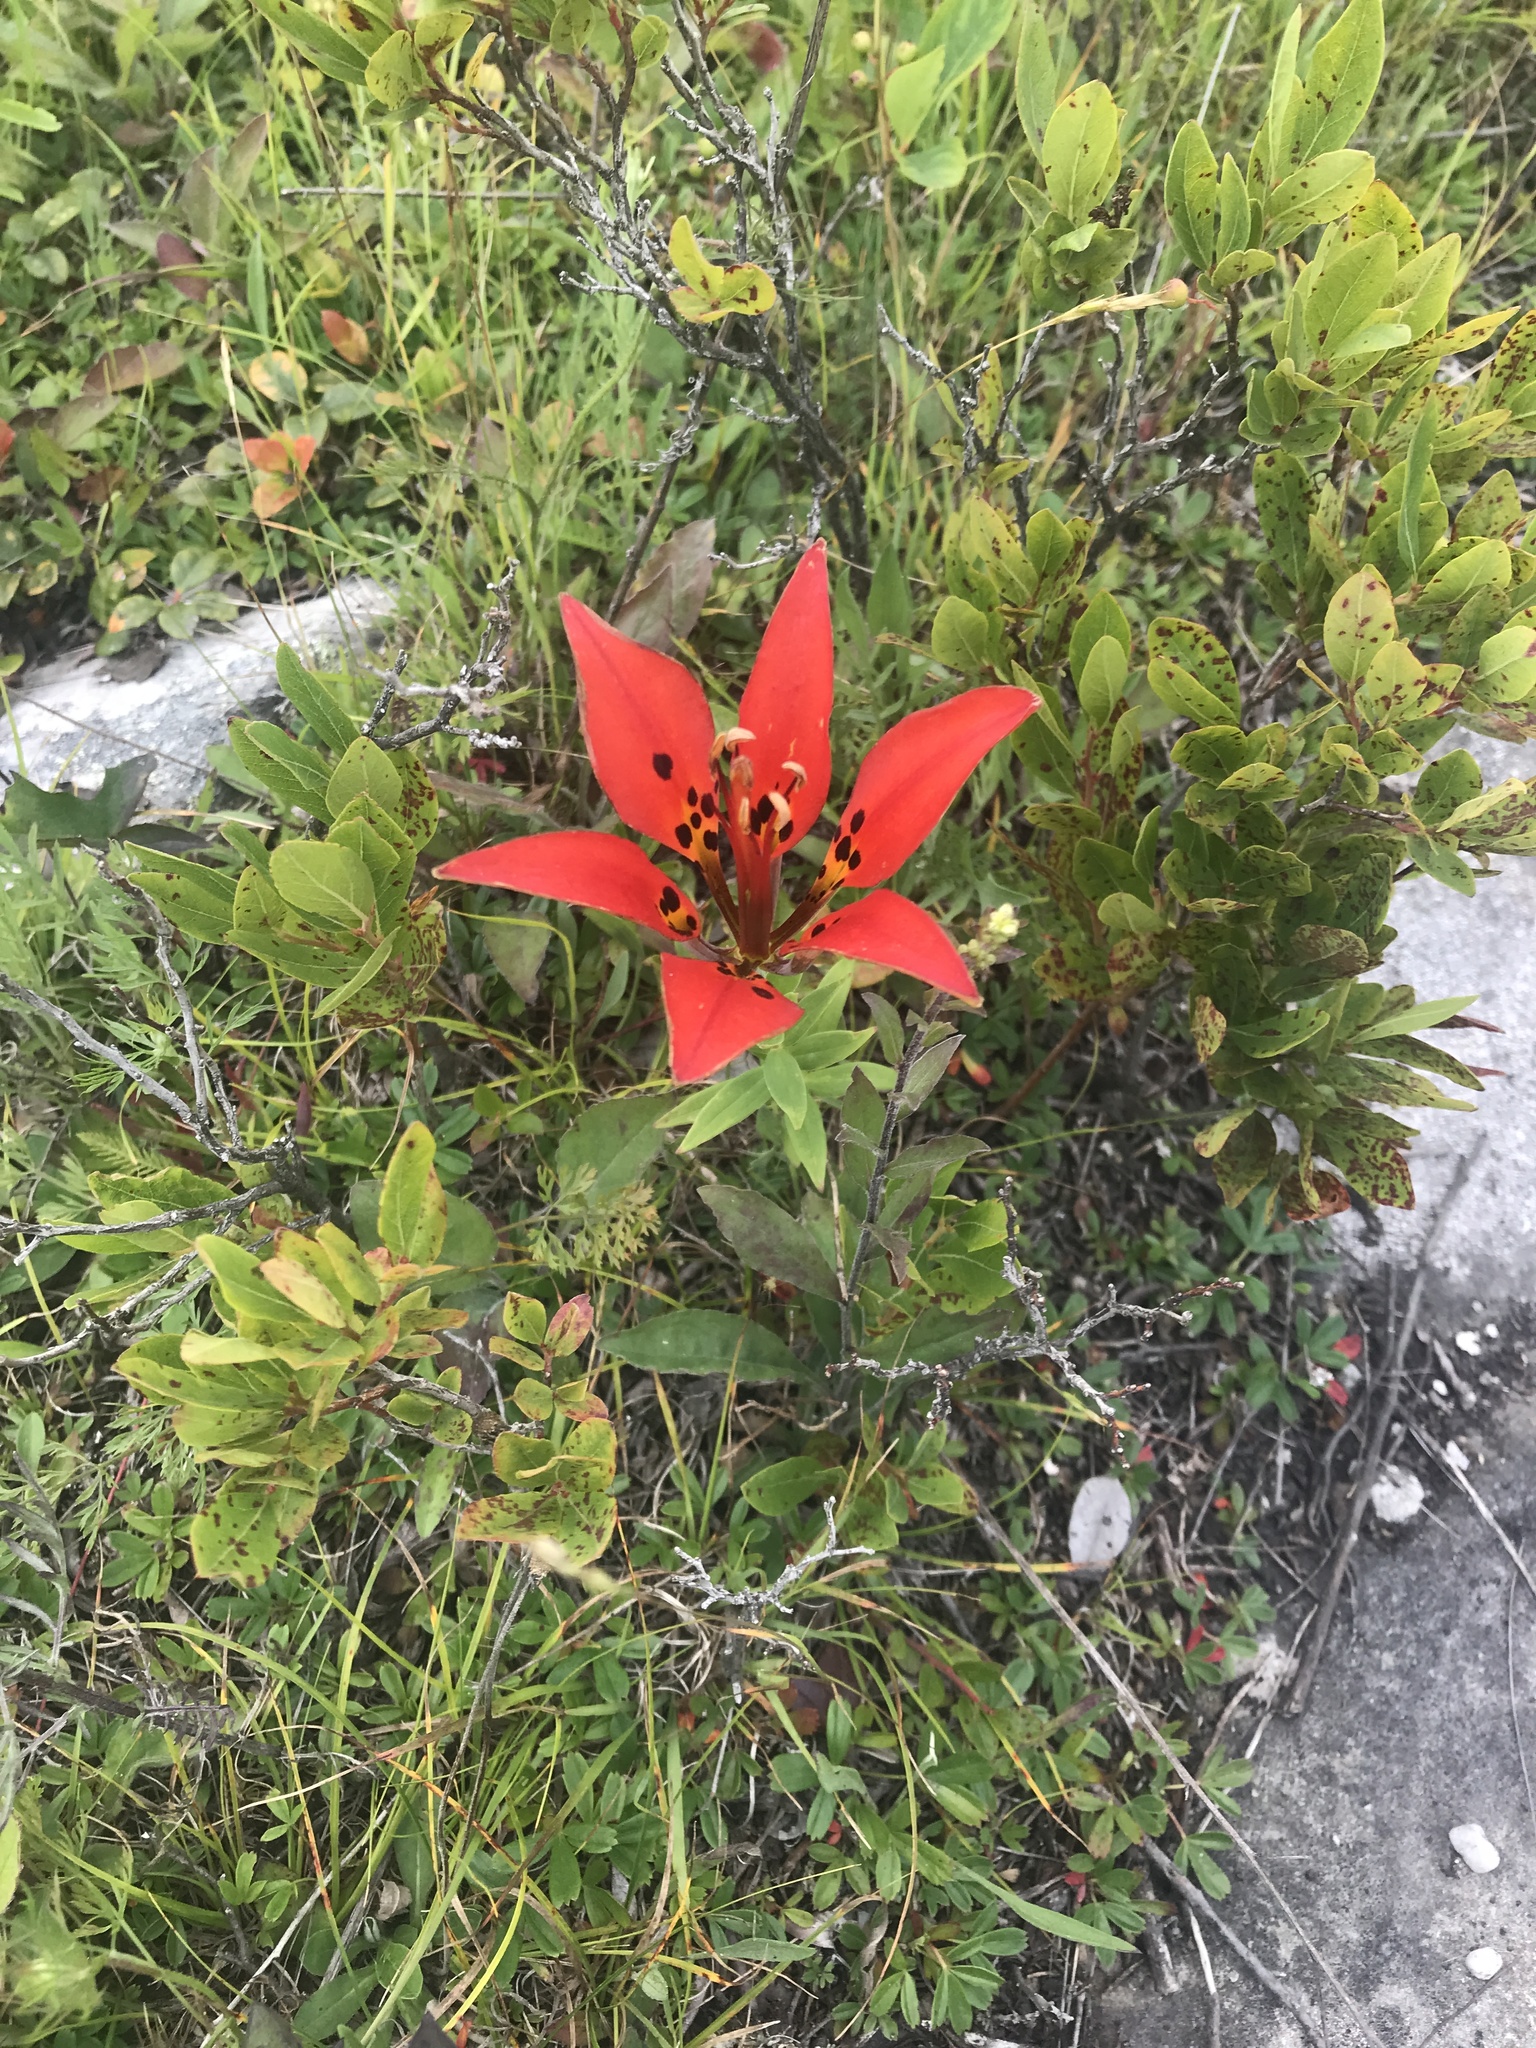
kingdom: Plantae
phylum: Tracheophyta
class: Liliopsida
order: Liliales
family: Liliaceae
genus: Lilium
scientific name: Lilium philadelphicum
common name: Red lily
